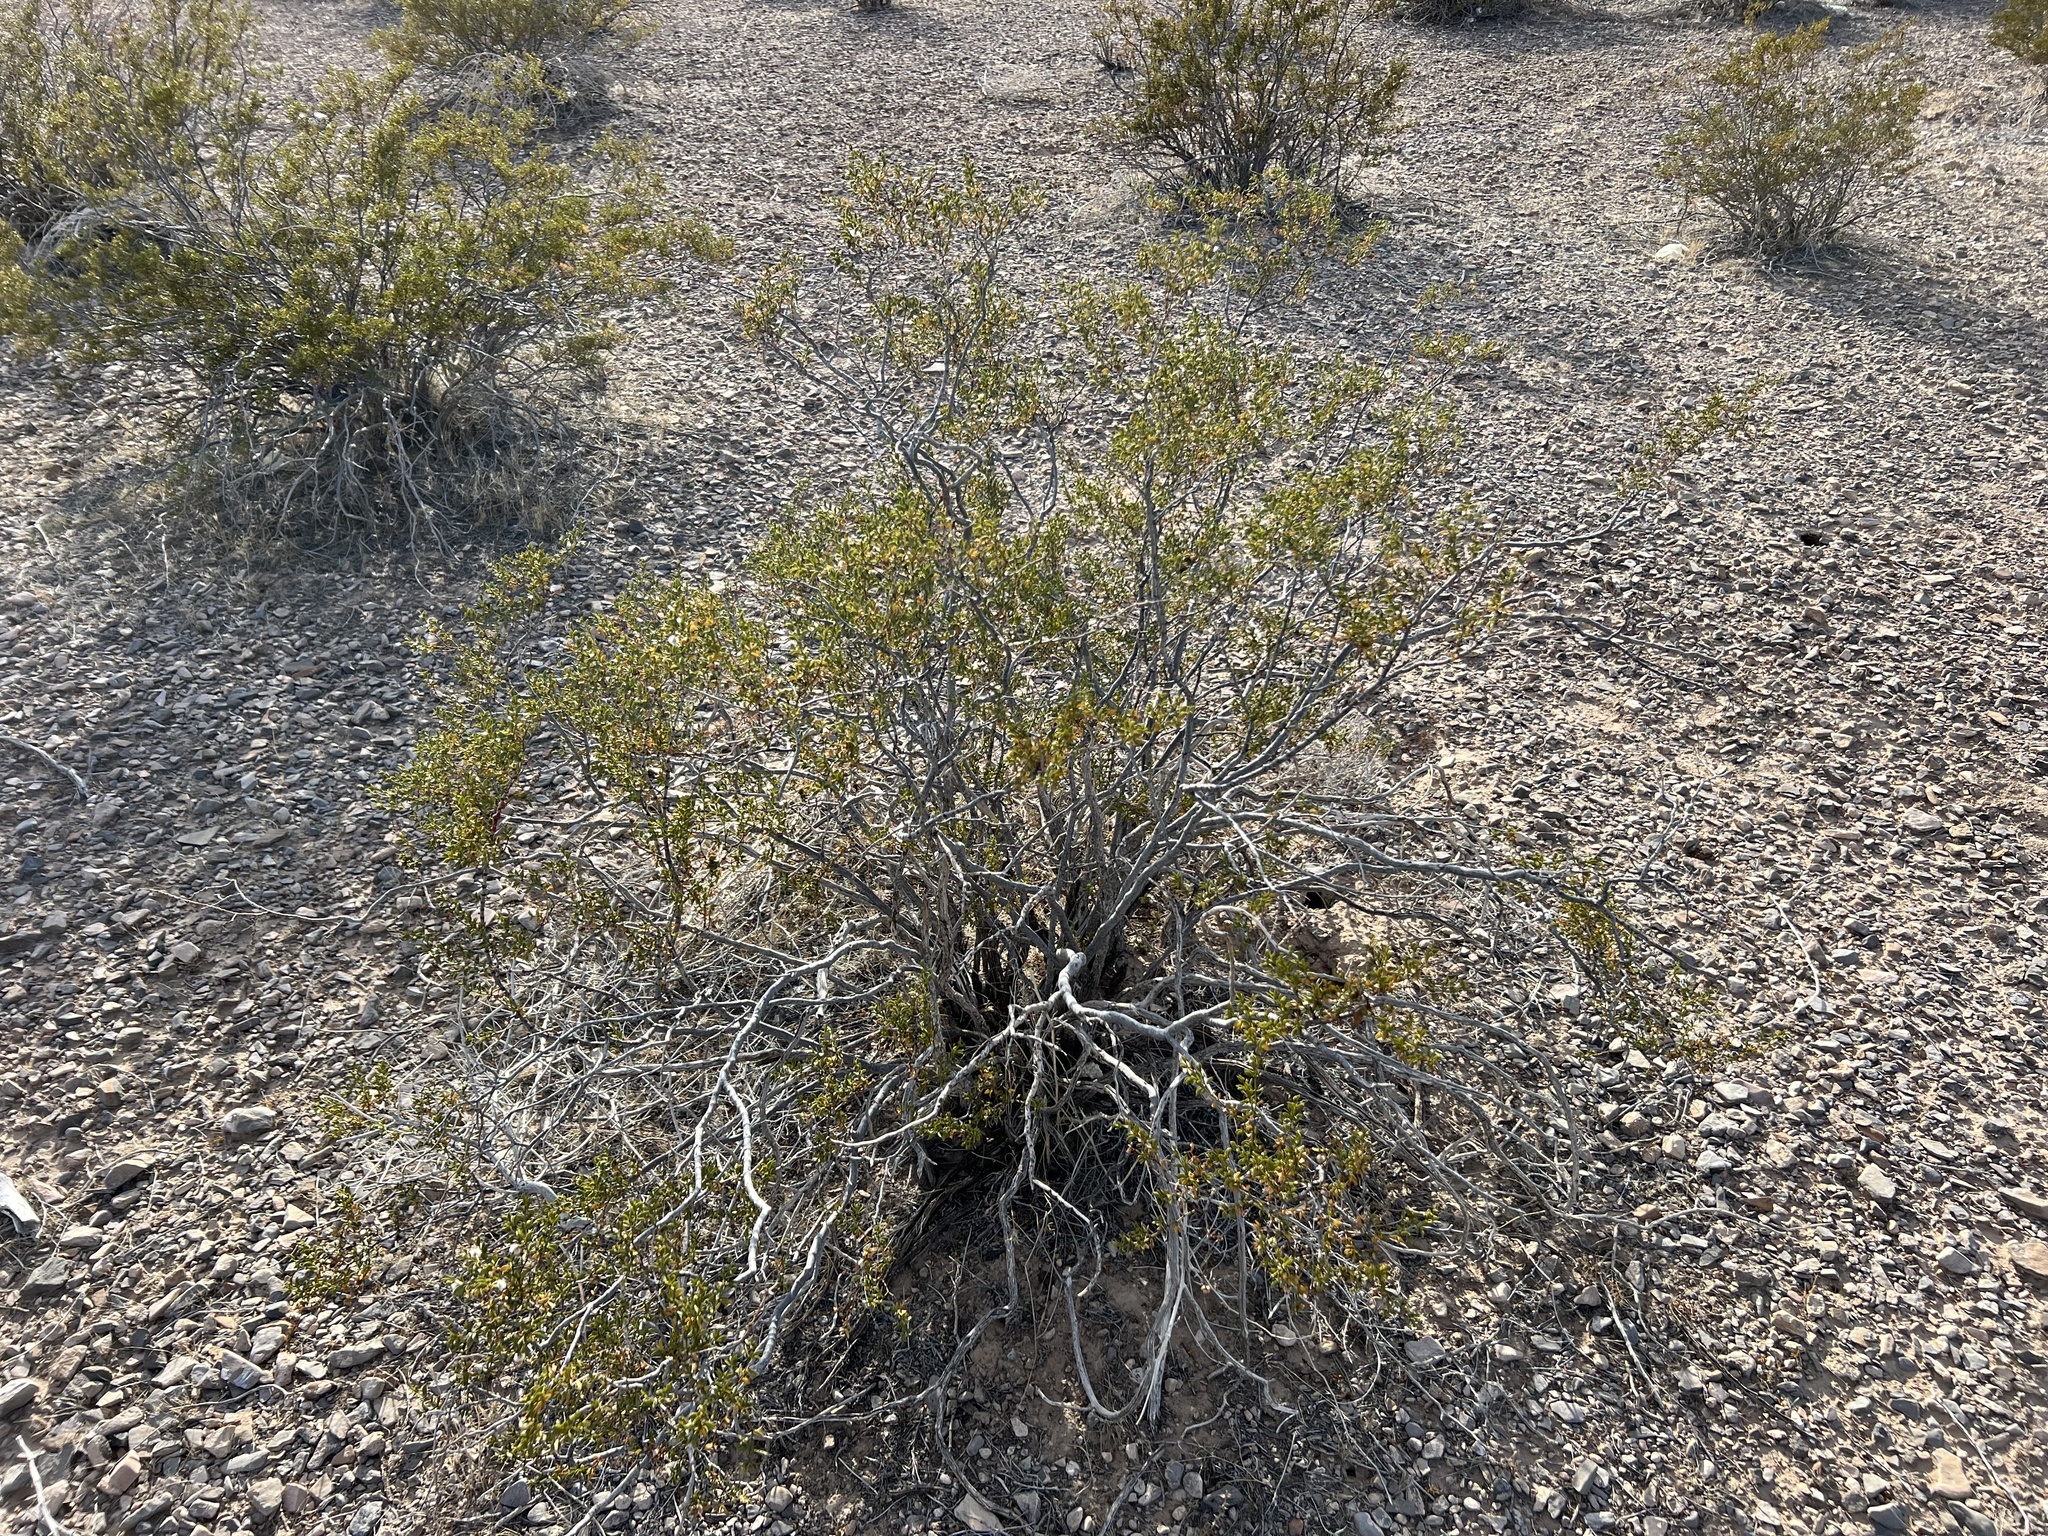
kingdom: Plantae
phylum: Tracheophyta
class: Magnoliopsida
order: Zygophyllales
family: Zygophyllaceae
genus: Larrea
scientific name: Larrea tridentata
